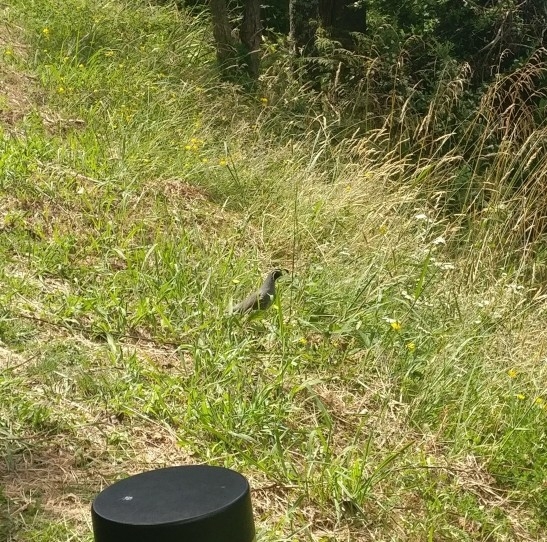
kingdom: Animalia
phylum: Chordata
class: Aves
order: Galliformes
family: Odontophoridae
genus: Callipepla
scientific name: Callipepla californica
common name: California quail
